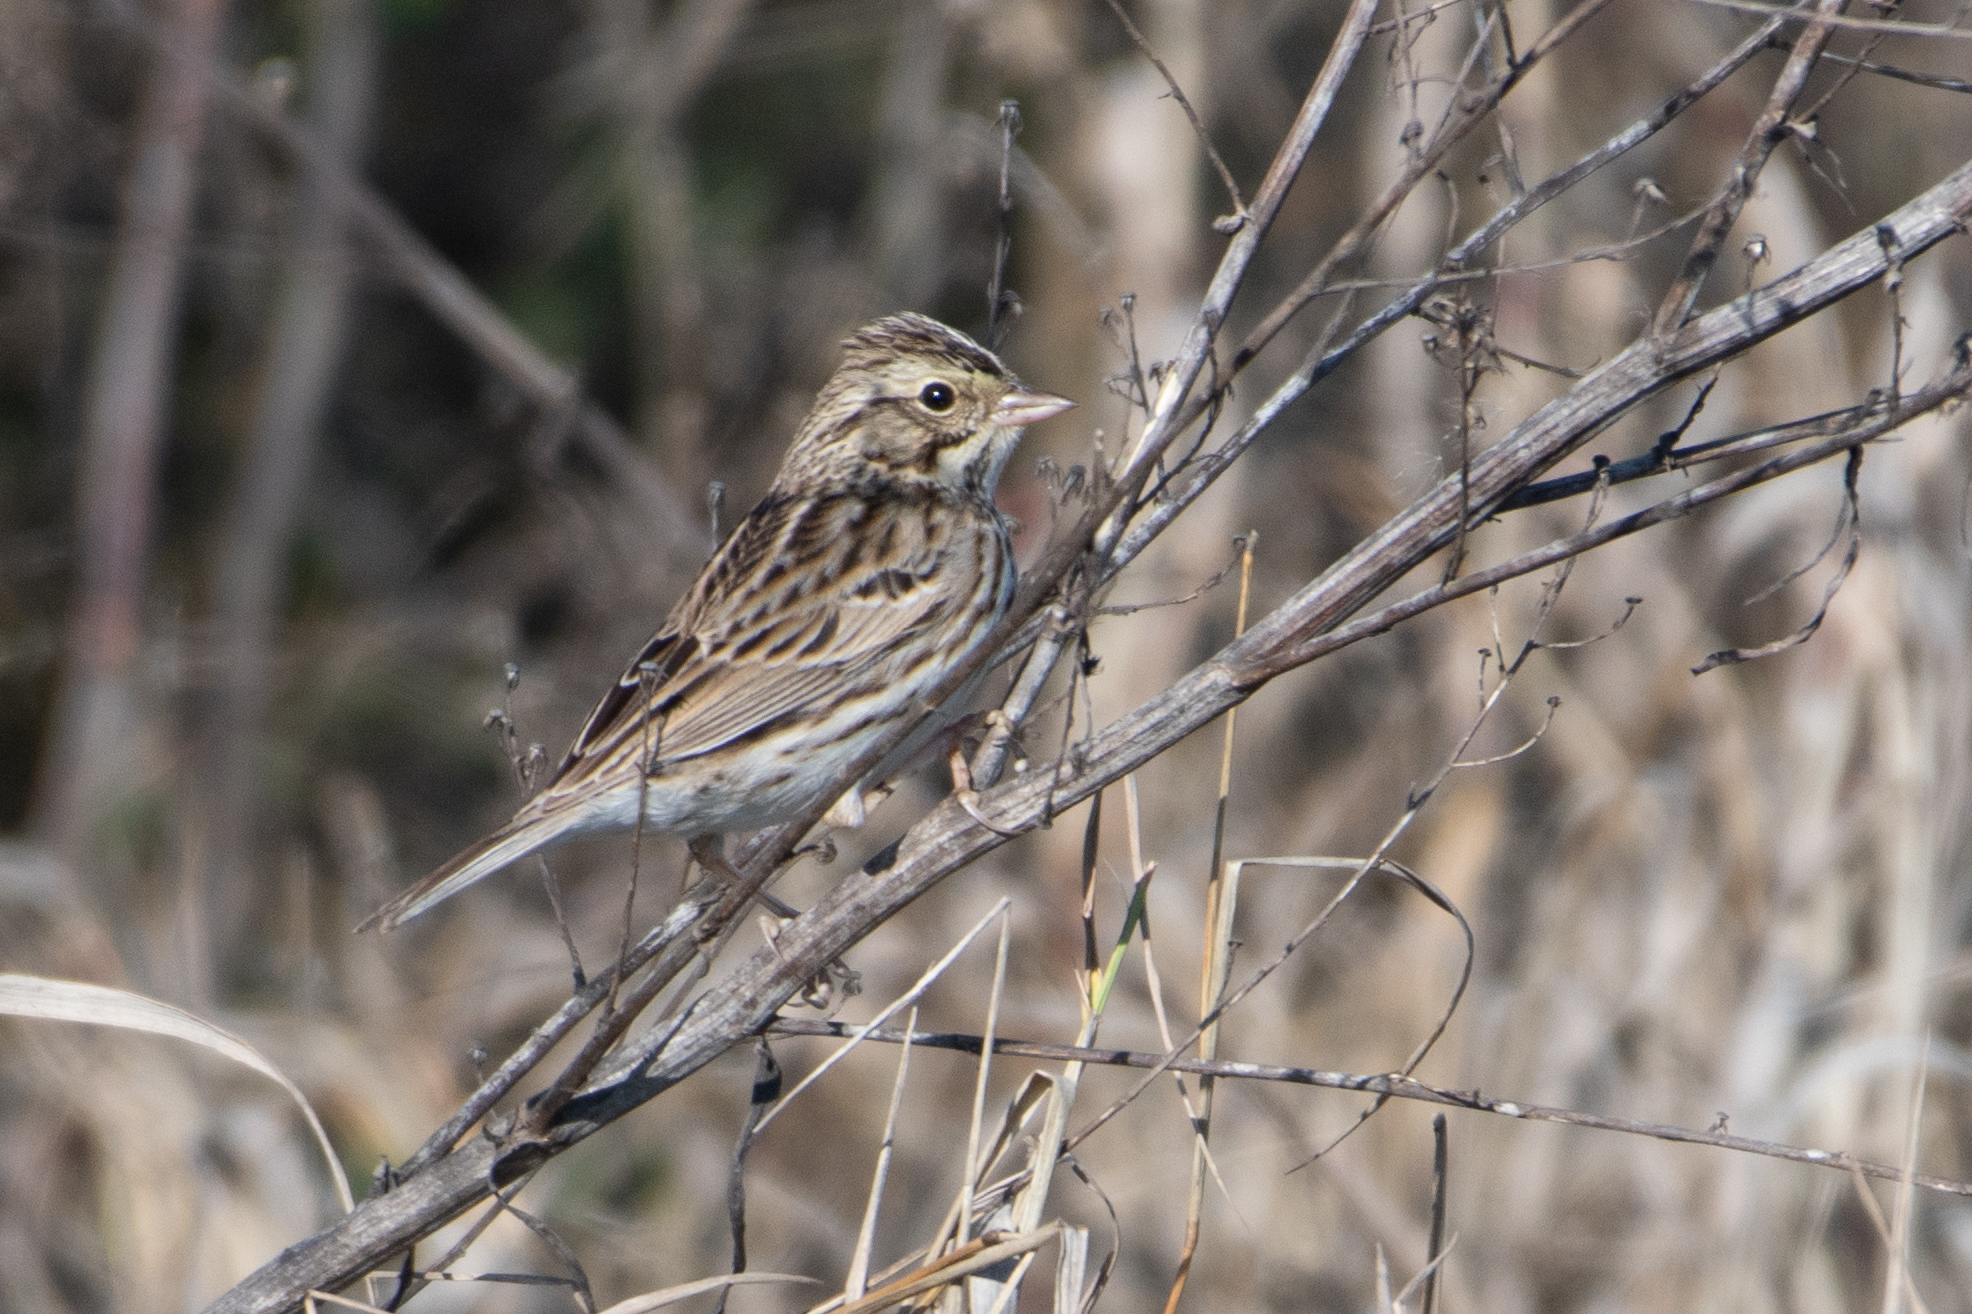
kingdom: Animalia
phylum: Chordata
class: Aves
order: Passeriformes
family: Passerellidae
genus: Passerculus
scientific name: Passerculus sandwichensis
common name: Savannah sparrow
